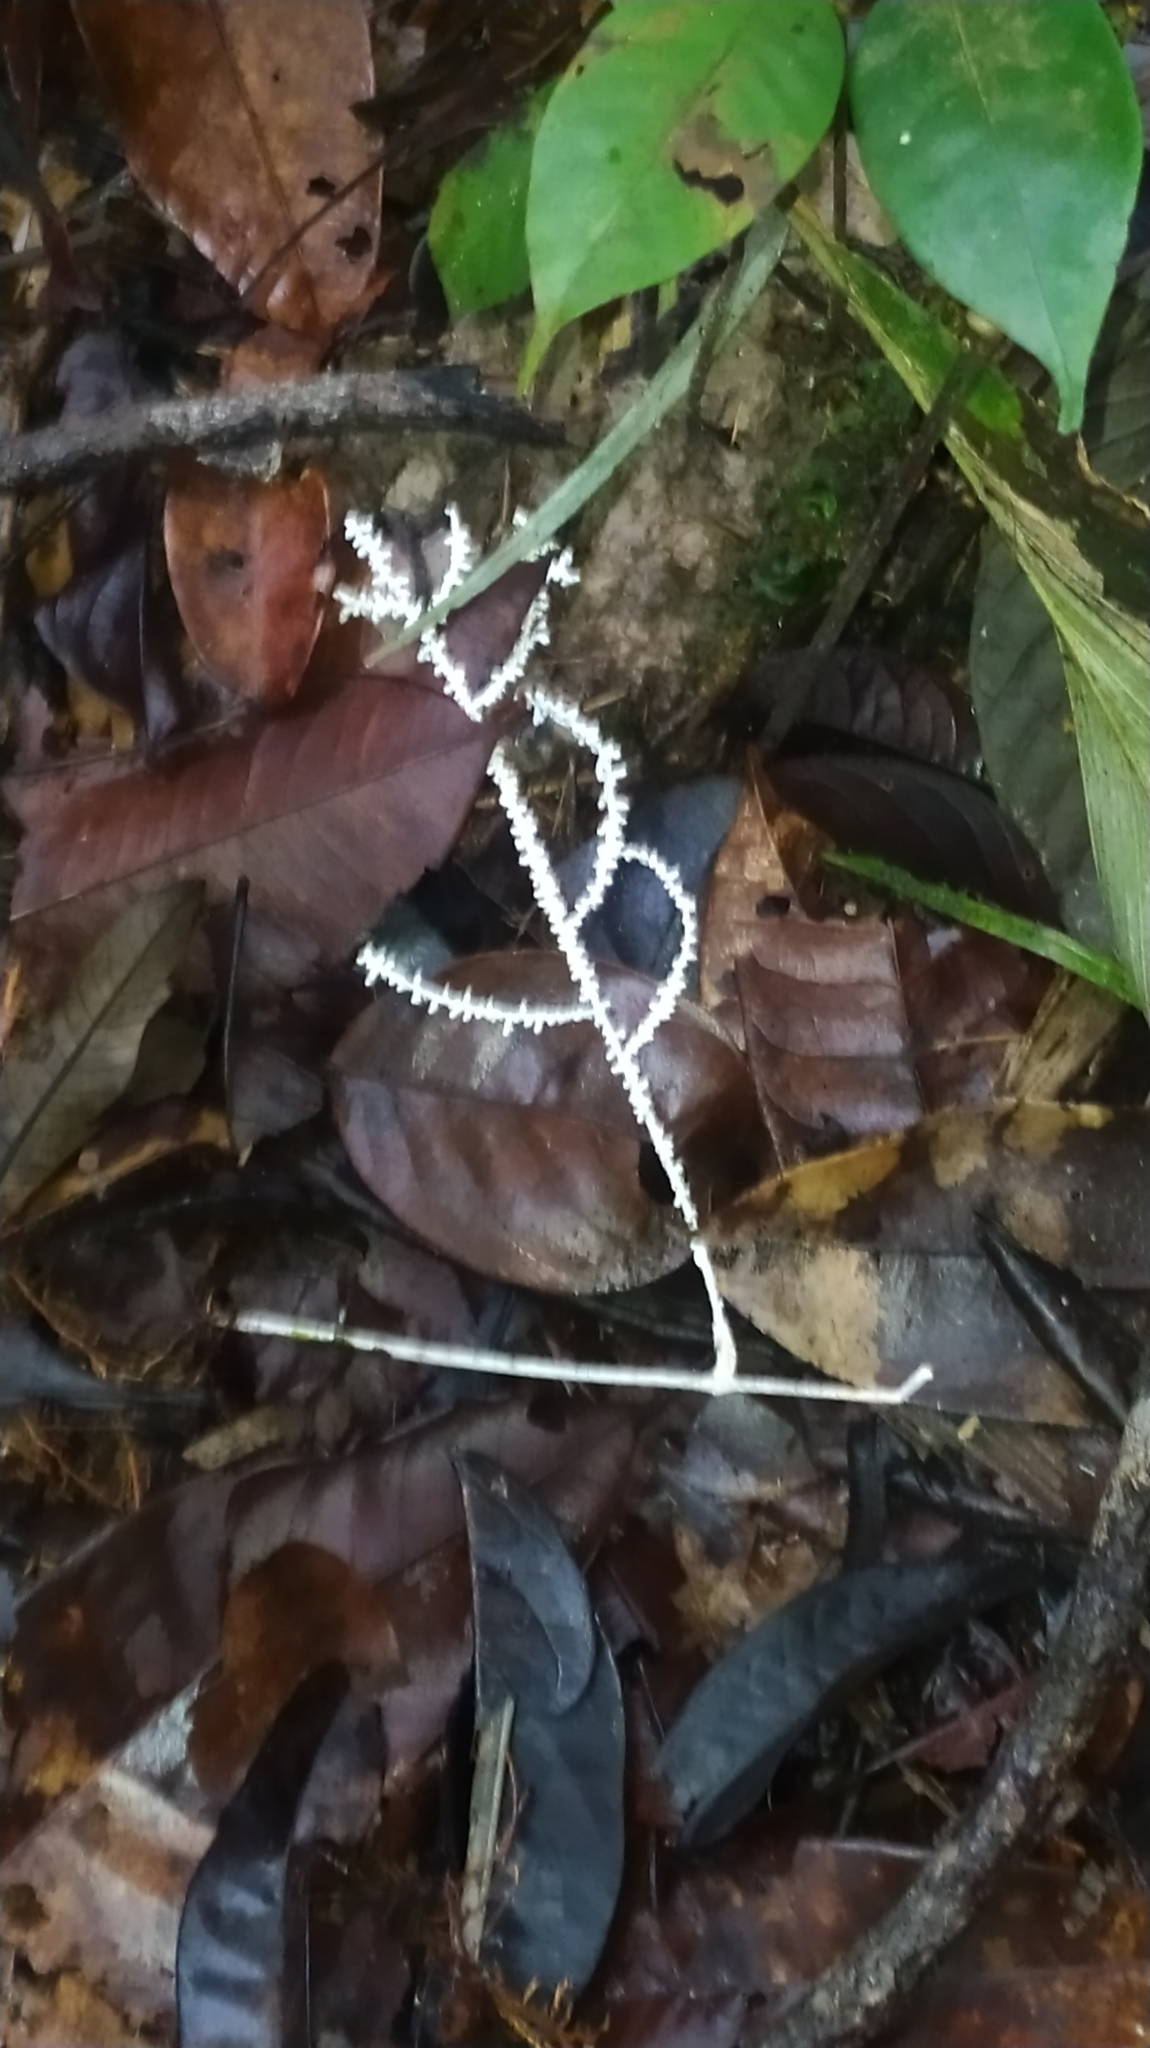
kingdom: Fungi
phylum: Basidiomycota
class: Agaricomycetes
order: Agaricales
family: Marasmiaceae
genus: Brunneocorticium
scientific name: Brunneocorticium corynecarpon
